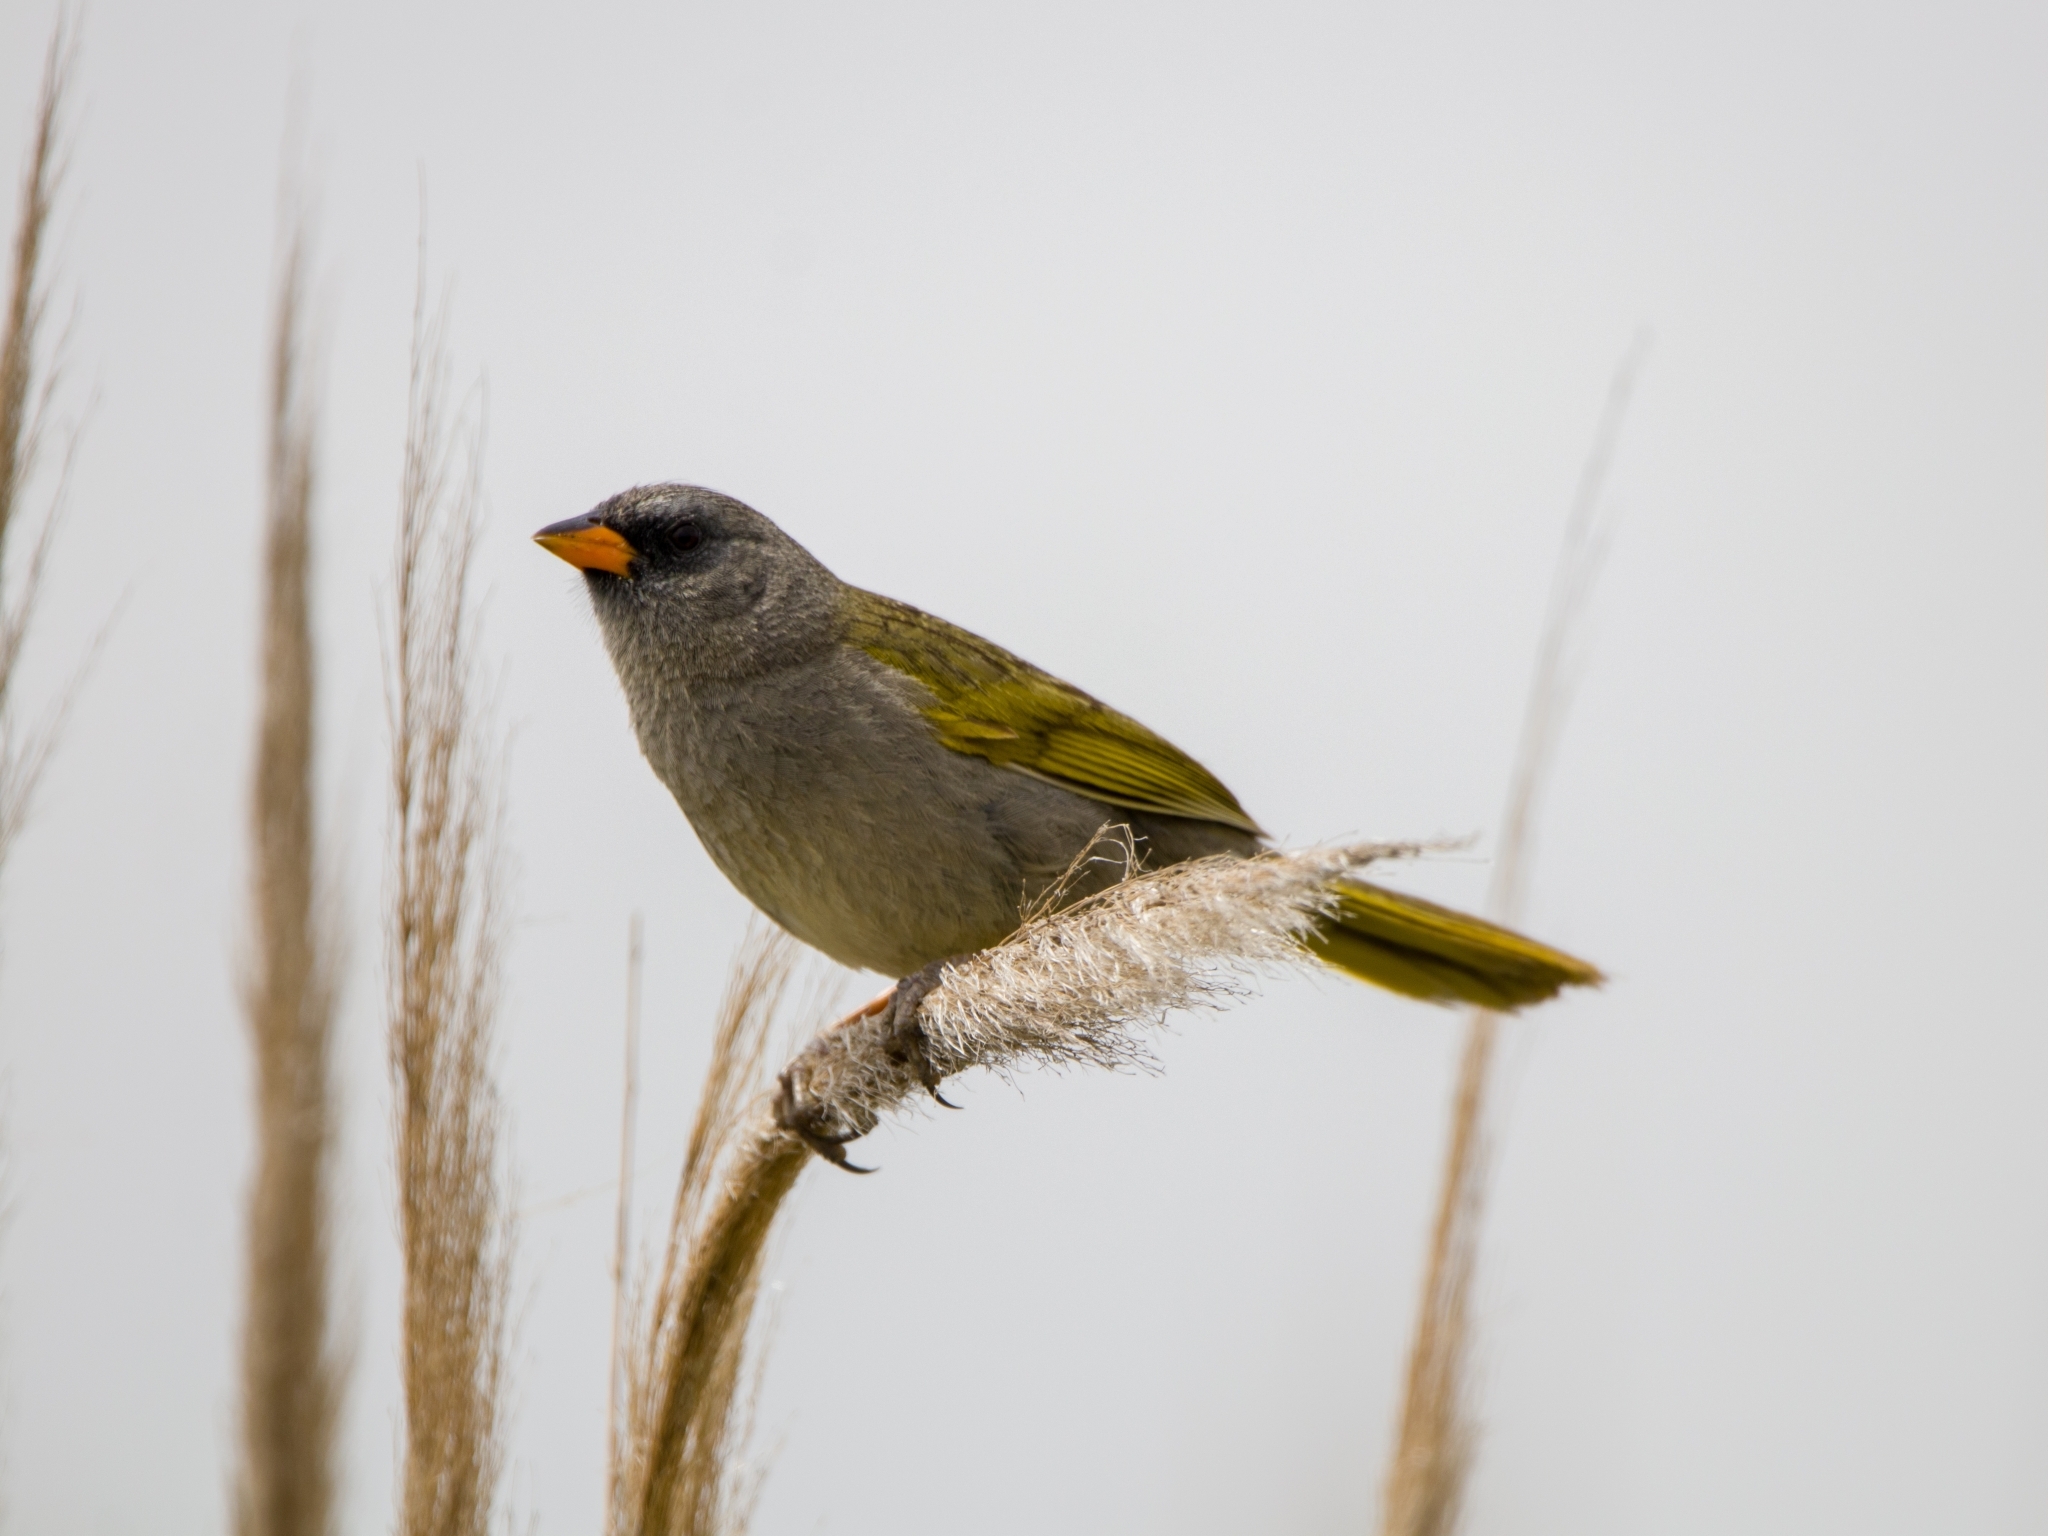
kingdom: Animalia
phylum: Chordata
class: Aves
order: Passeriformes
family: Thraupidae
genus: Embernagra
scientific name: Embernagra platensis
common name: Pampa finch
